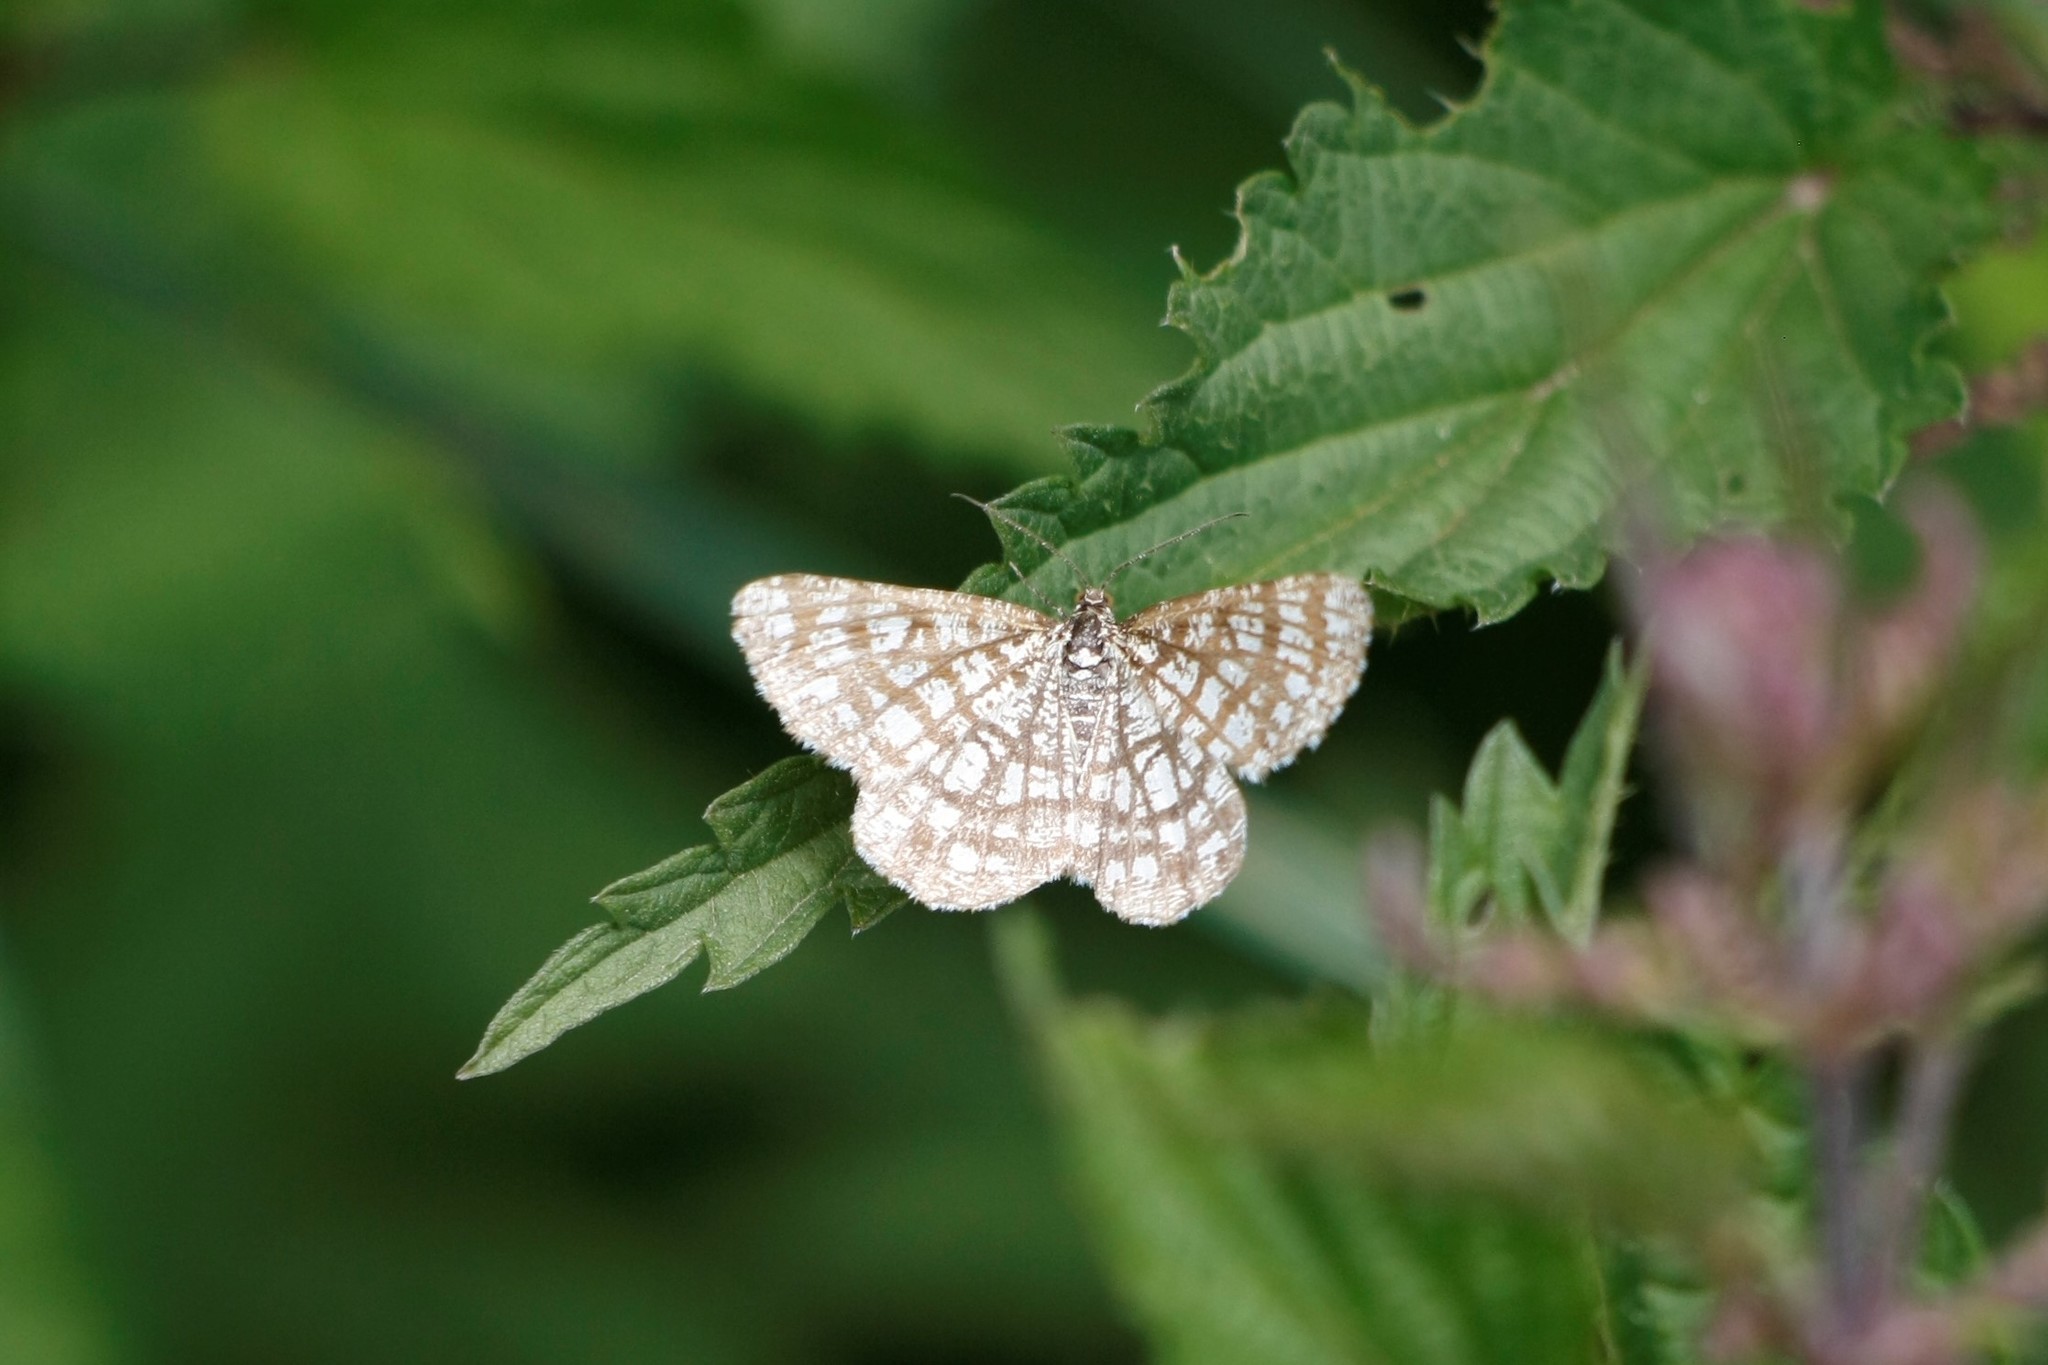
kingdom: Animalia
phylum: Arthropoda
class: Insecta
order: Lepidoptera
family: Geometridae
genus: Chiasmia
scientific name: Chiasmia clathrata
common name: Latticed heath
